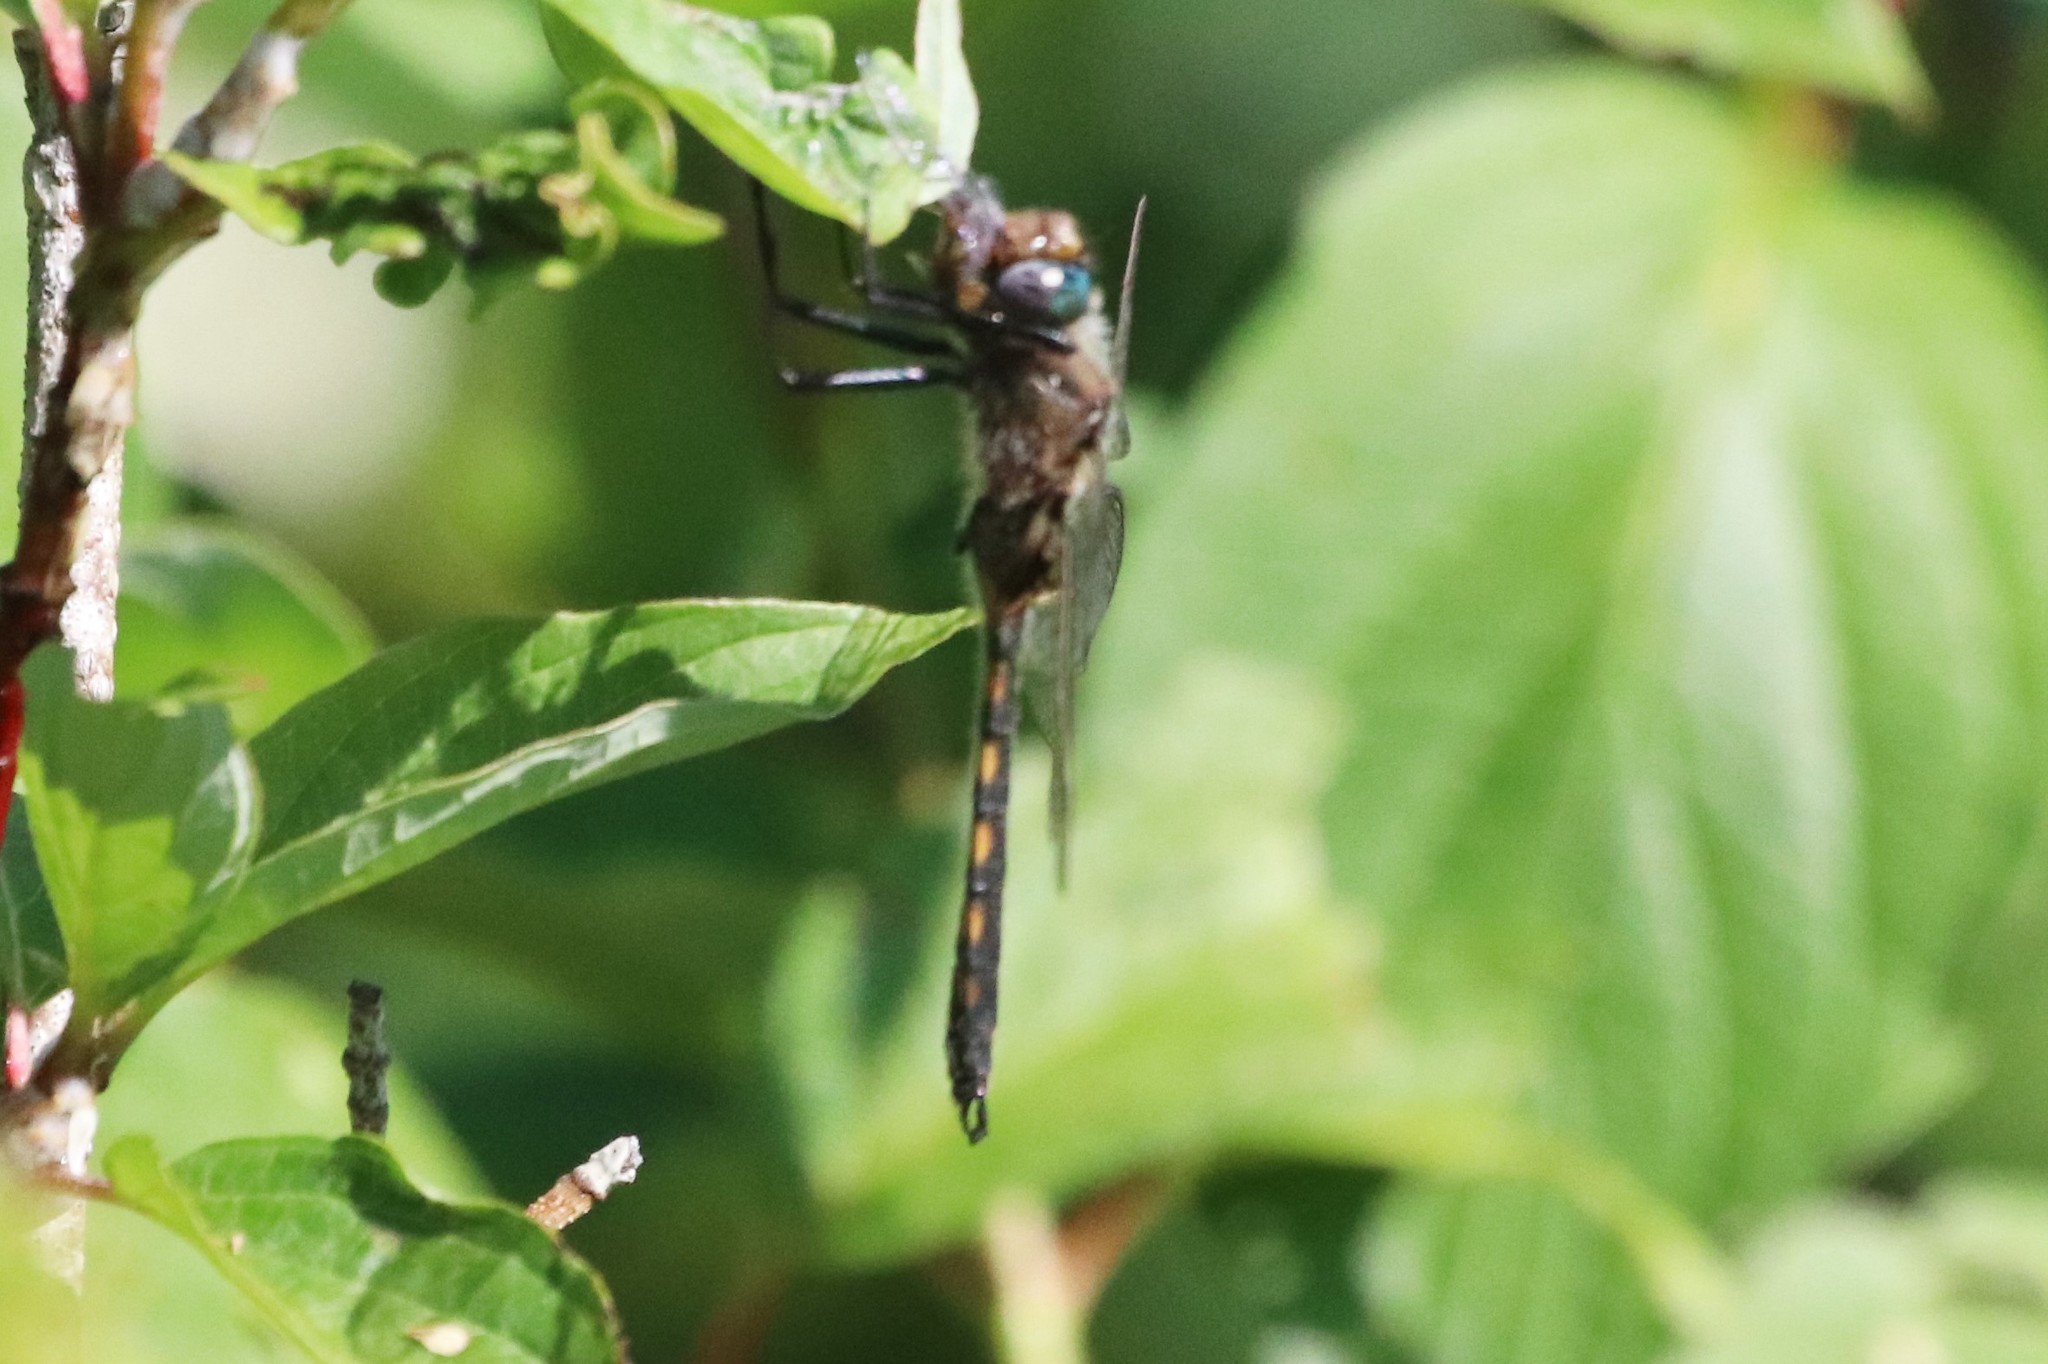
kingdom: Animalia
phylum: Arthropoda
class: Insecta
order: Odonata
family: Corduliidae
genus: Epitheca
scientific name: Epitheca canis
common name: Beaverpond baskettail
